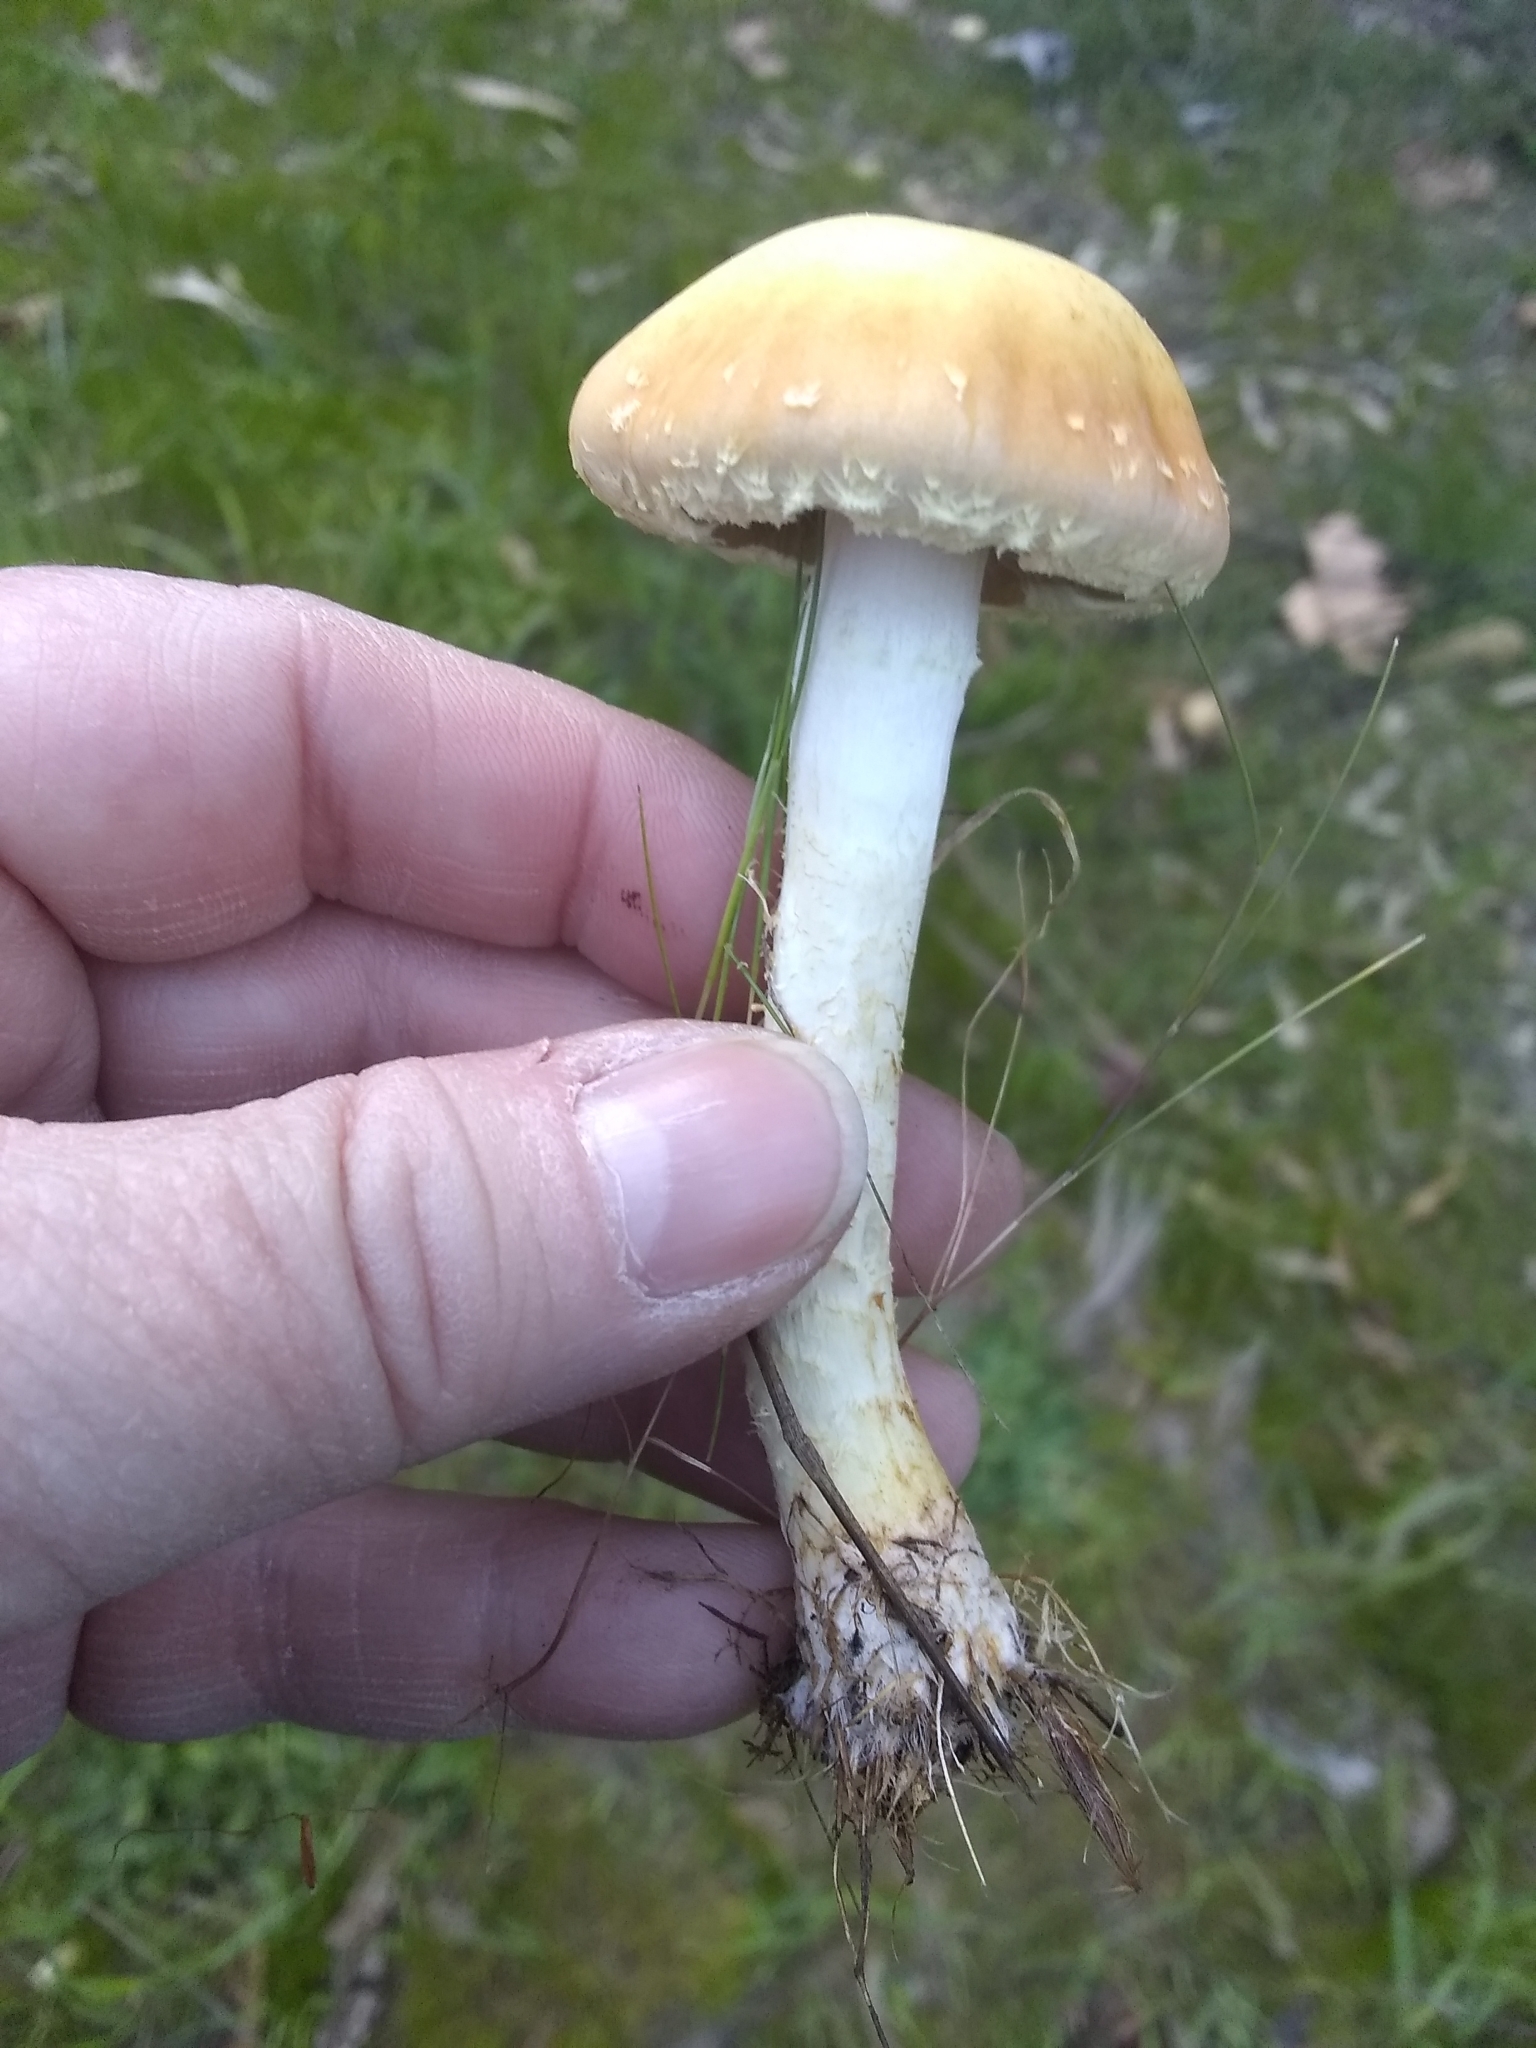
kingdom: Fungi
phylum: Basidiomycota
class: Agaricomycetes
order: Agaricales
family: Strophariaceae
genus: Leratiomyces
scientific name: Leratiomyces percevalii
